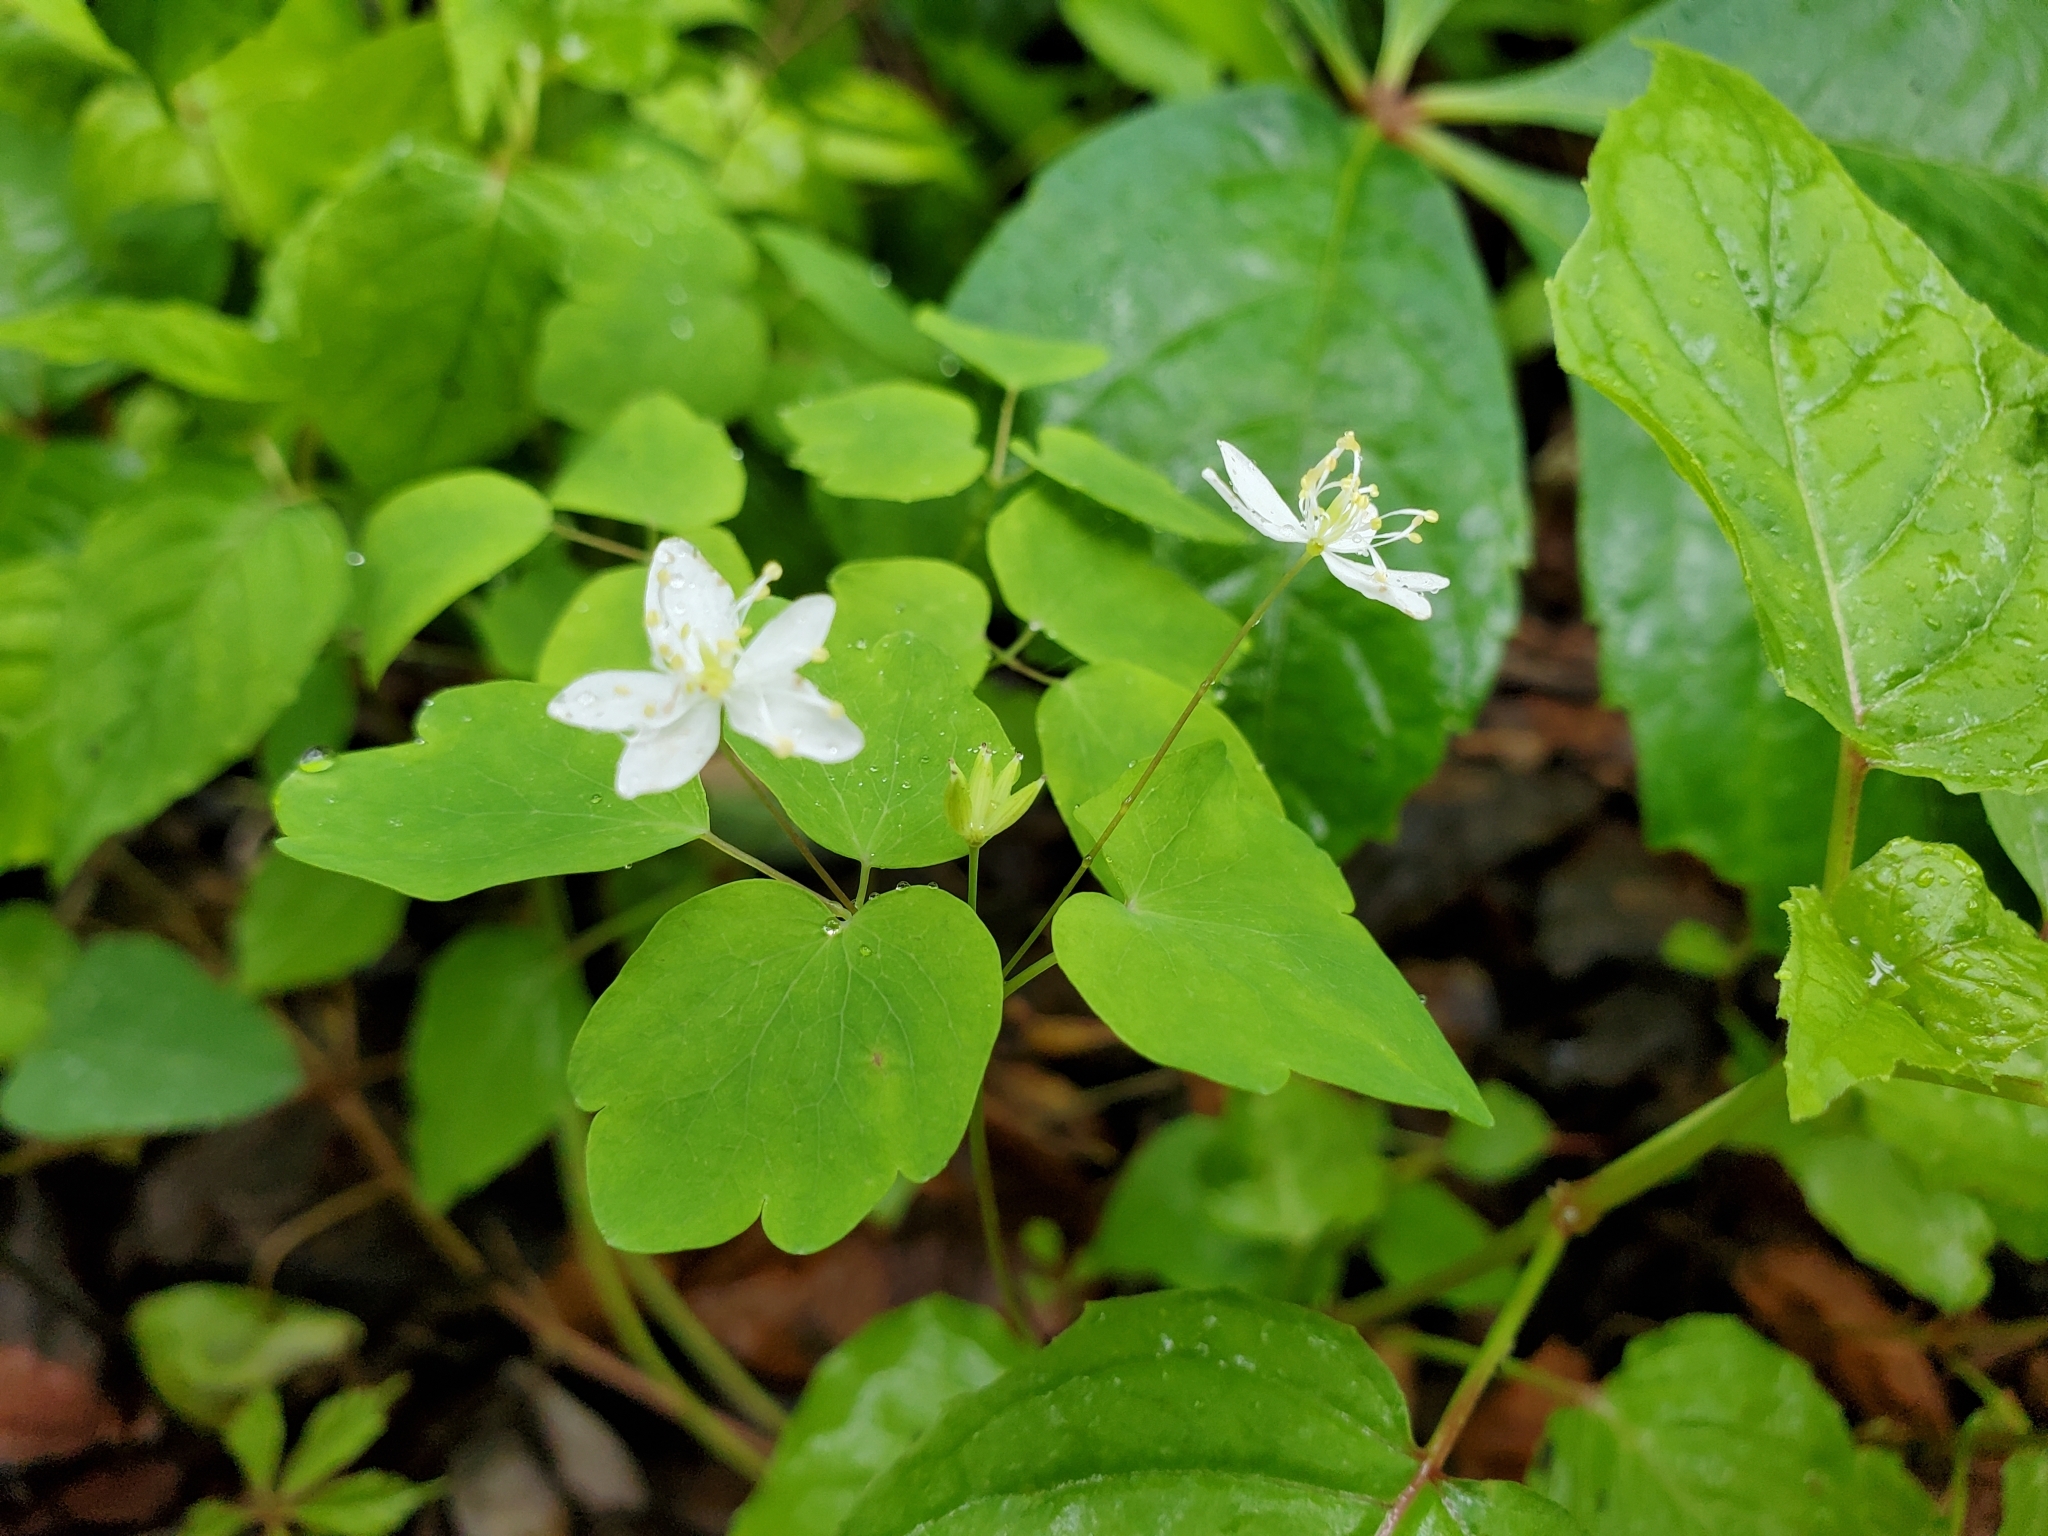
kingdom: Plantae
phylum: Tracheophyta
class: Magnoliopsida
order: Ranunculales
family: Ranunculaceae
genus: Thalictrum
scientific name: Thalictrum thalictroides
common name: Rue-anemone
